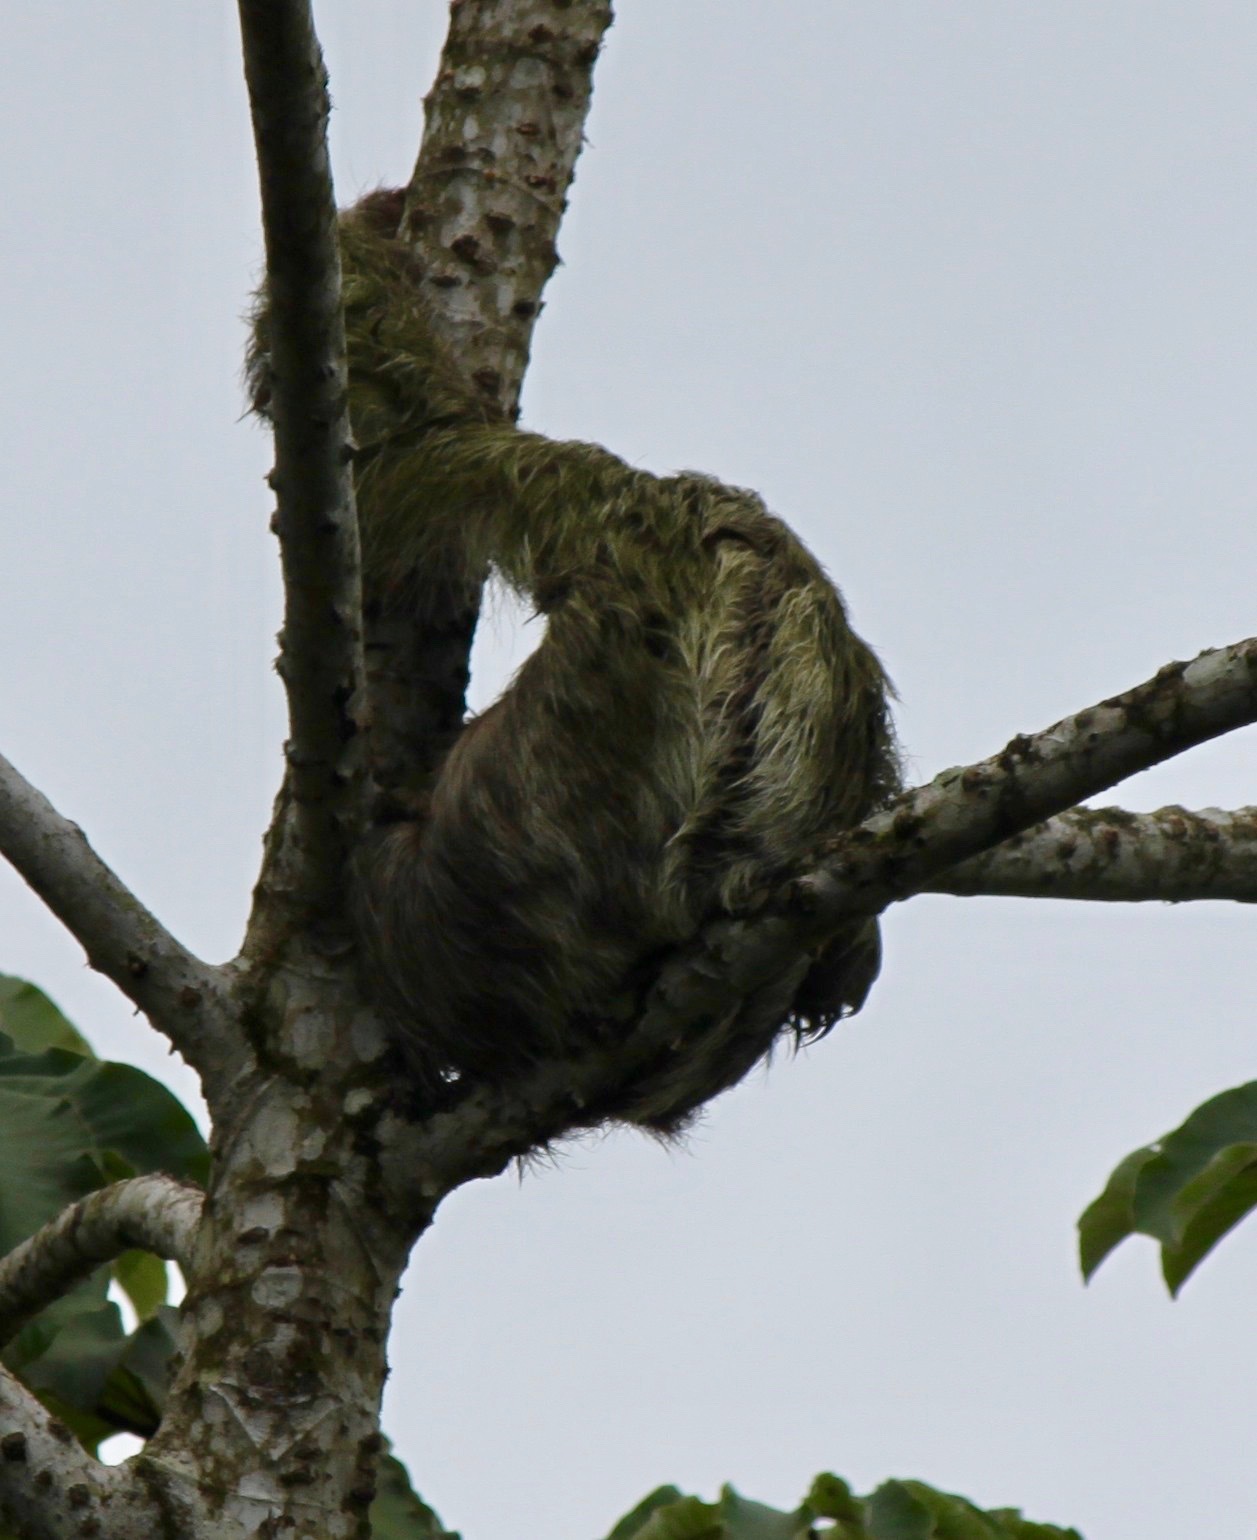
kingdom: Animalia
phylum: Chordata
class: Mammalia
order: Pilosa
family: Bradypodidae
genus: Bradypus
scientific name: Bradypus variegatus
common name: Brown-throated three-toed sloth
